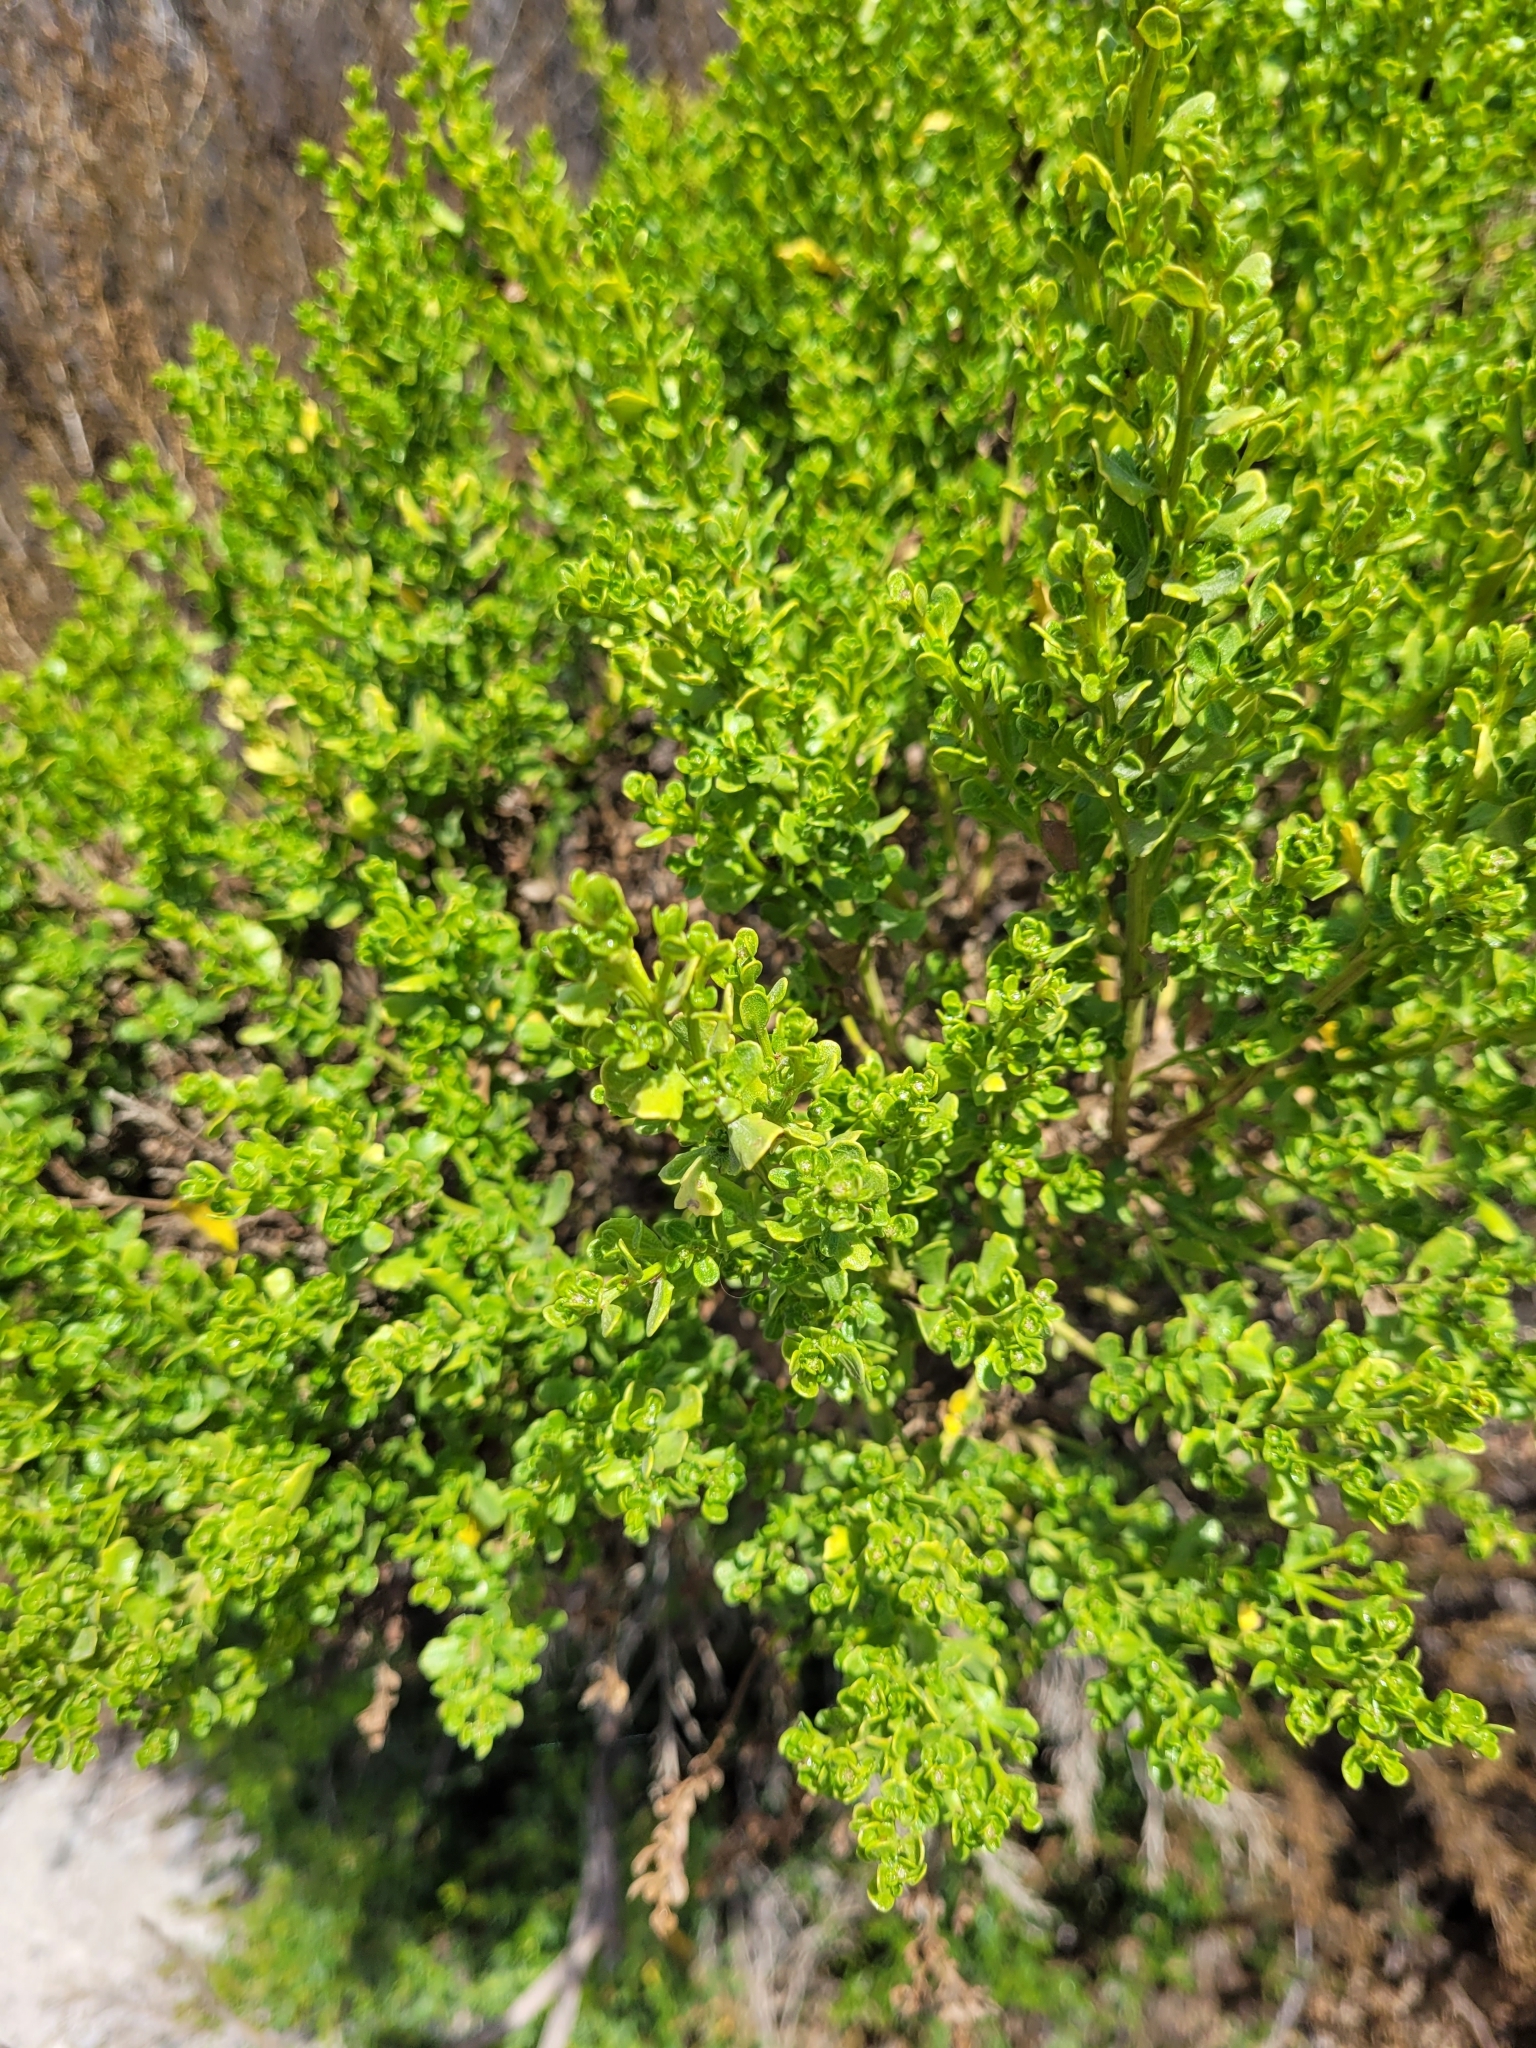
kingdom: Plantae
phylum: Tracheophyta
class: Magnoliopsida
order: Asterales
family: Asteraceae
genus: Baccharis
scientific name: Baccharis pilularis
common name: Coyotebrush
